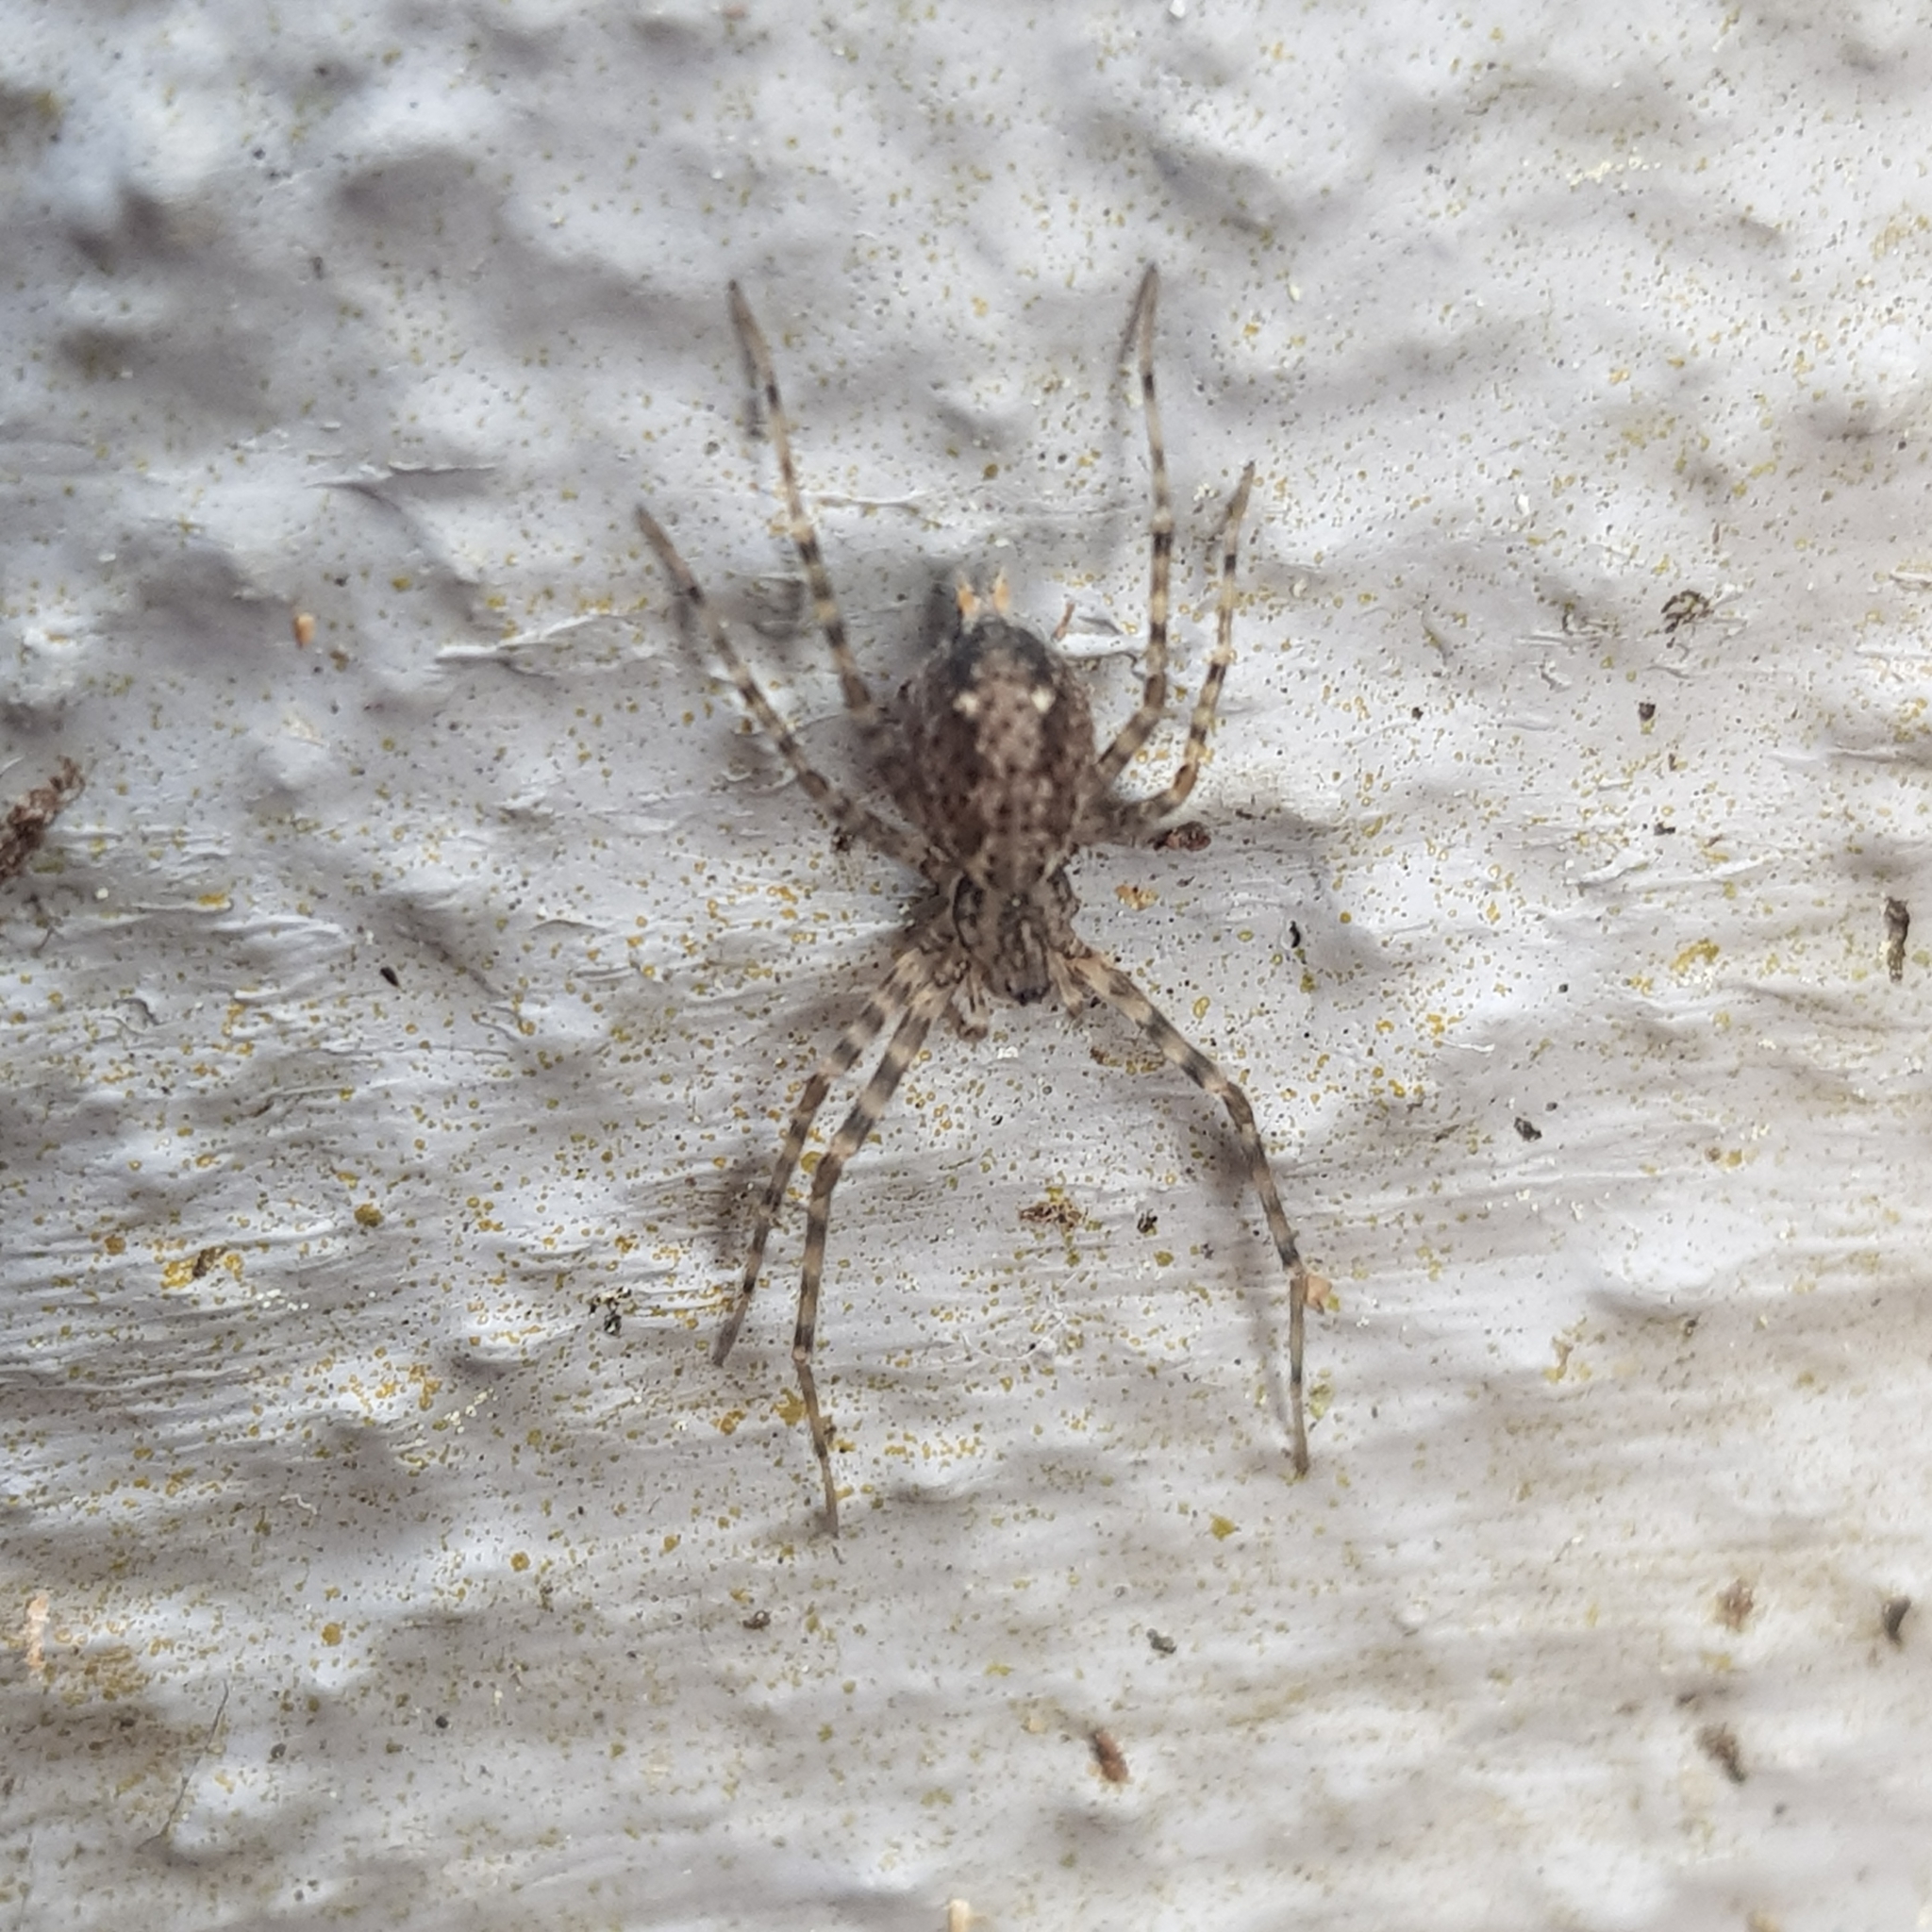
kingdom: Animalia
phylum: Arthropoda
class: Arachnida
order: Araneae
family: Stiphidiidae
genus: Stiphidion
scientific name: Stiphidion facetum
